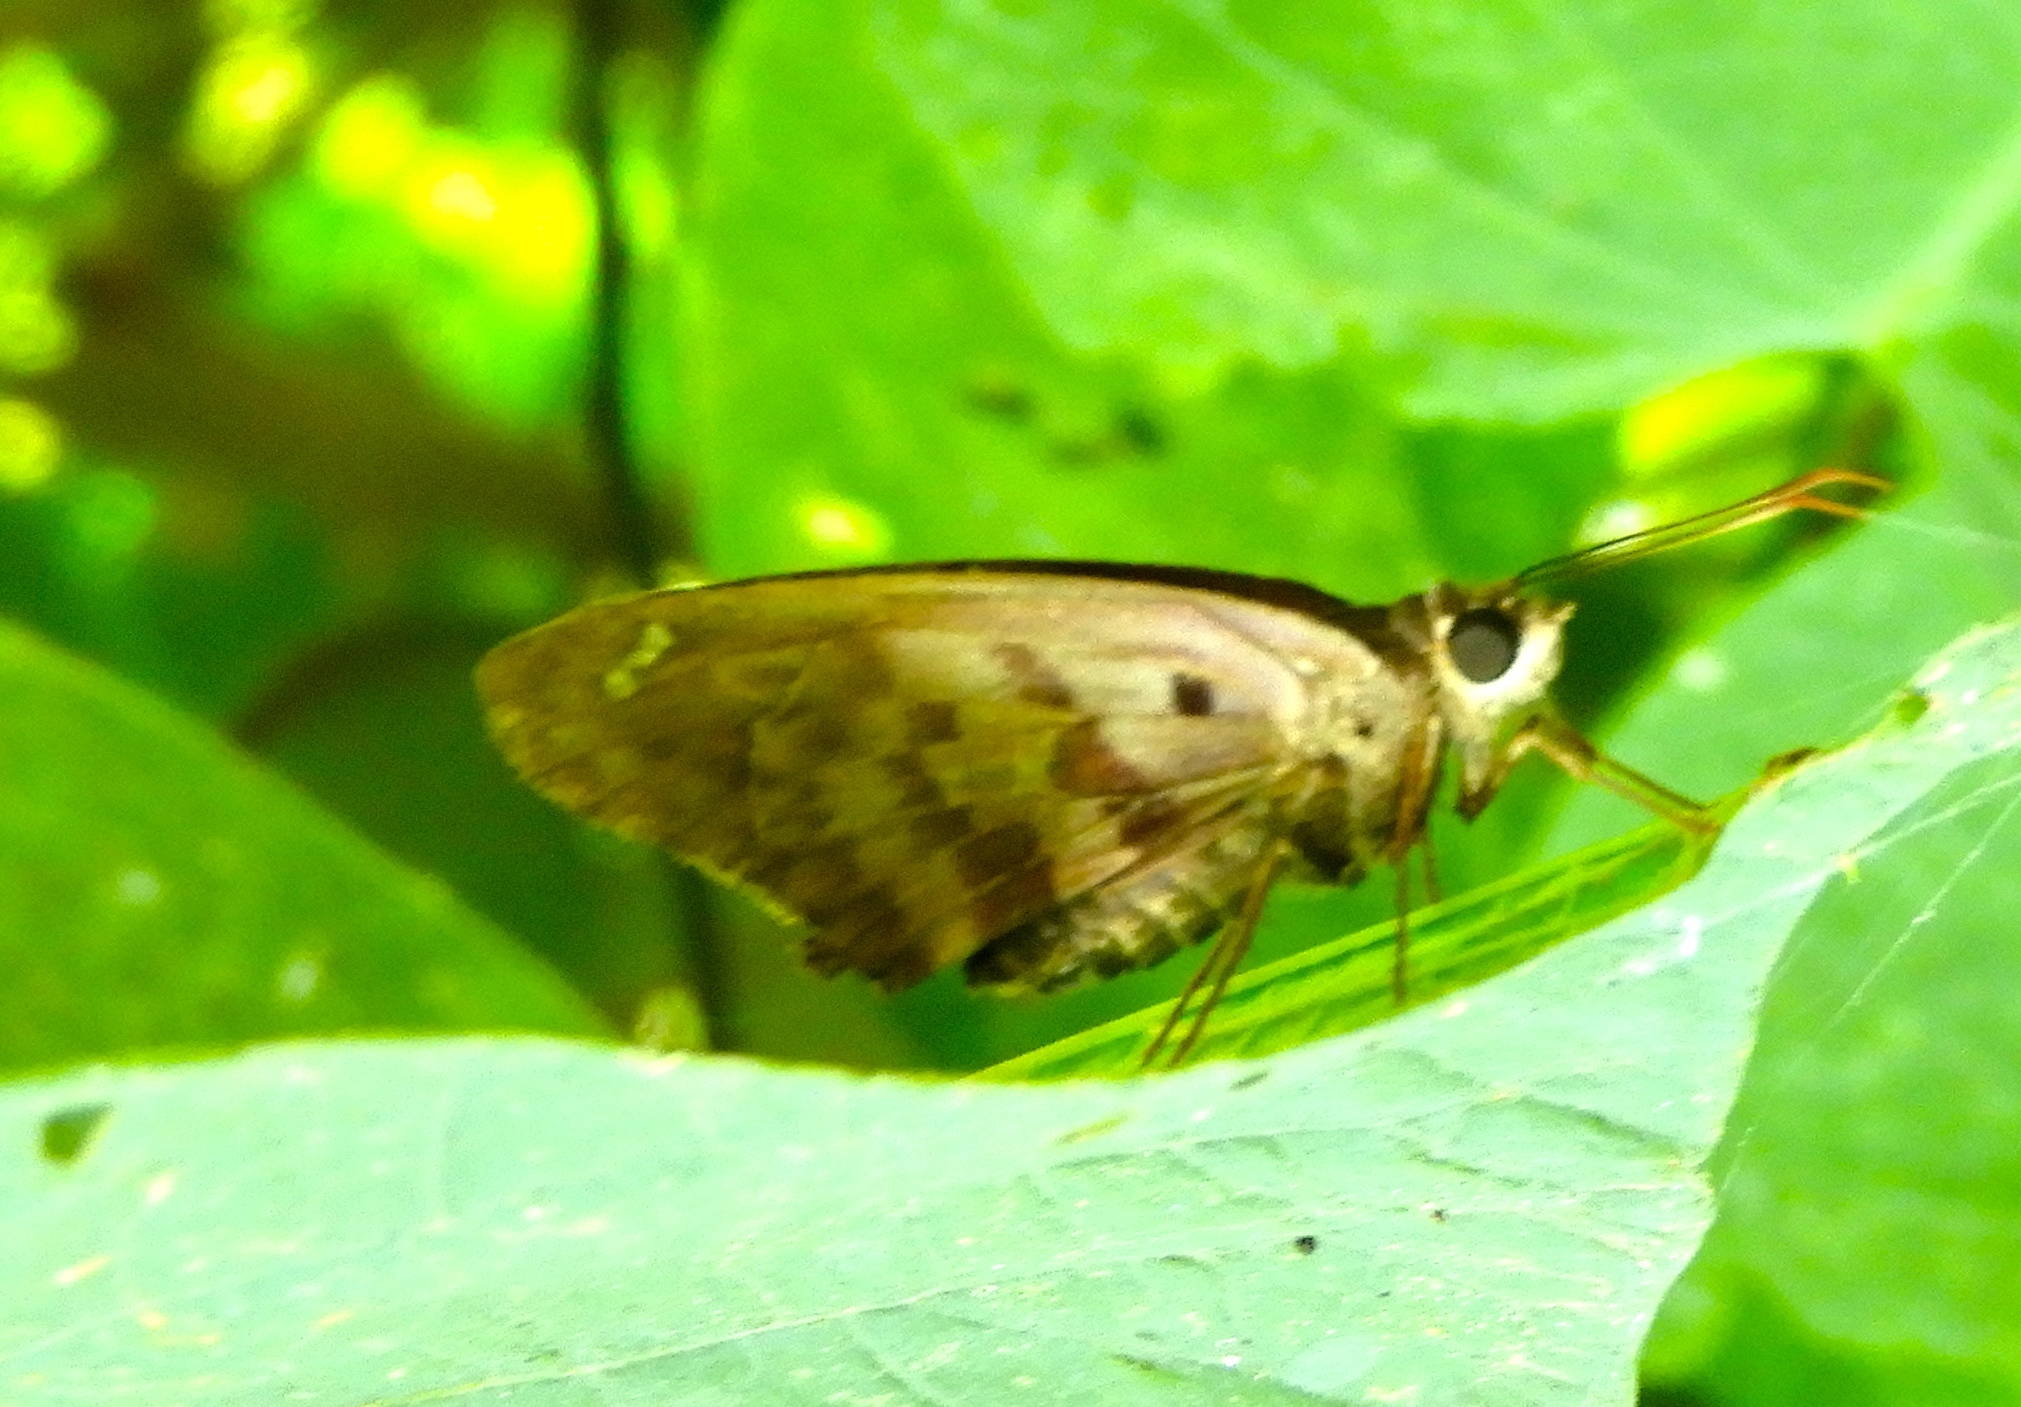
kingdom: Animalia
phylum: Arthropoda
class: Insecta
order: Lepidoptera
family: Hesperiidae
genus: Polygonus
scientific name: Polygonus
